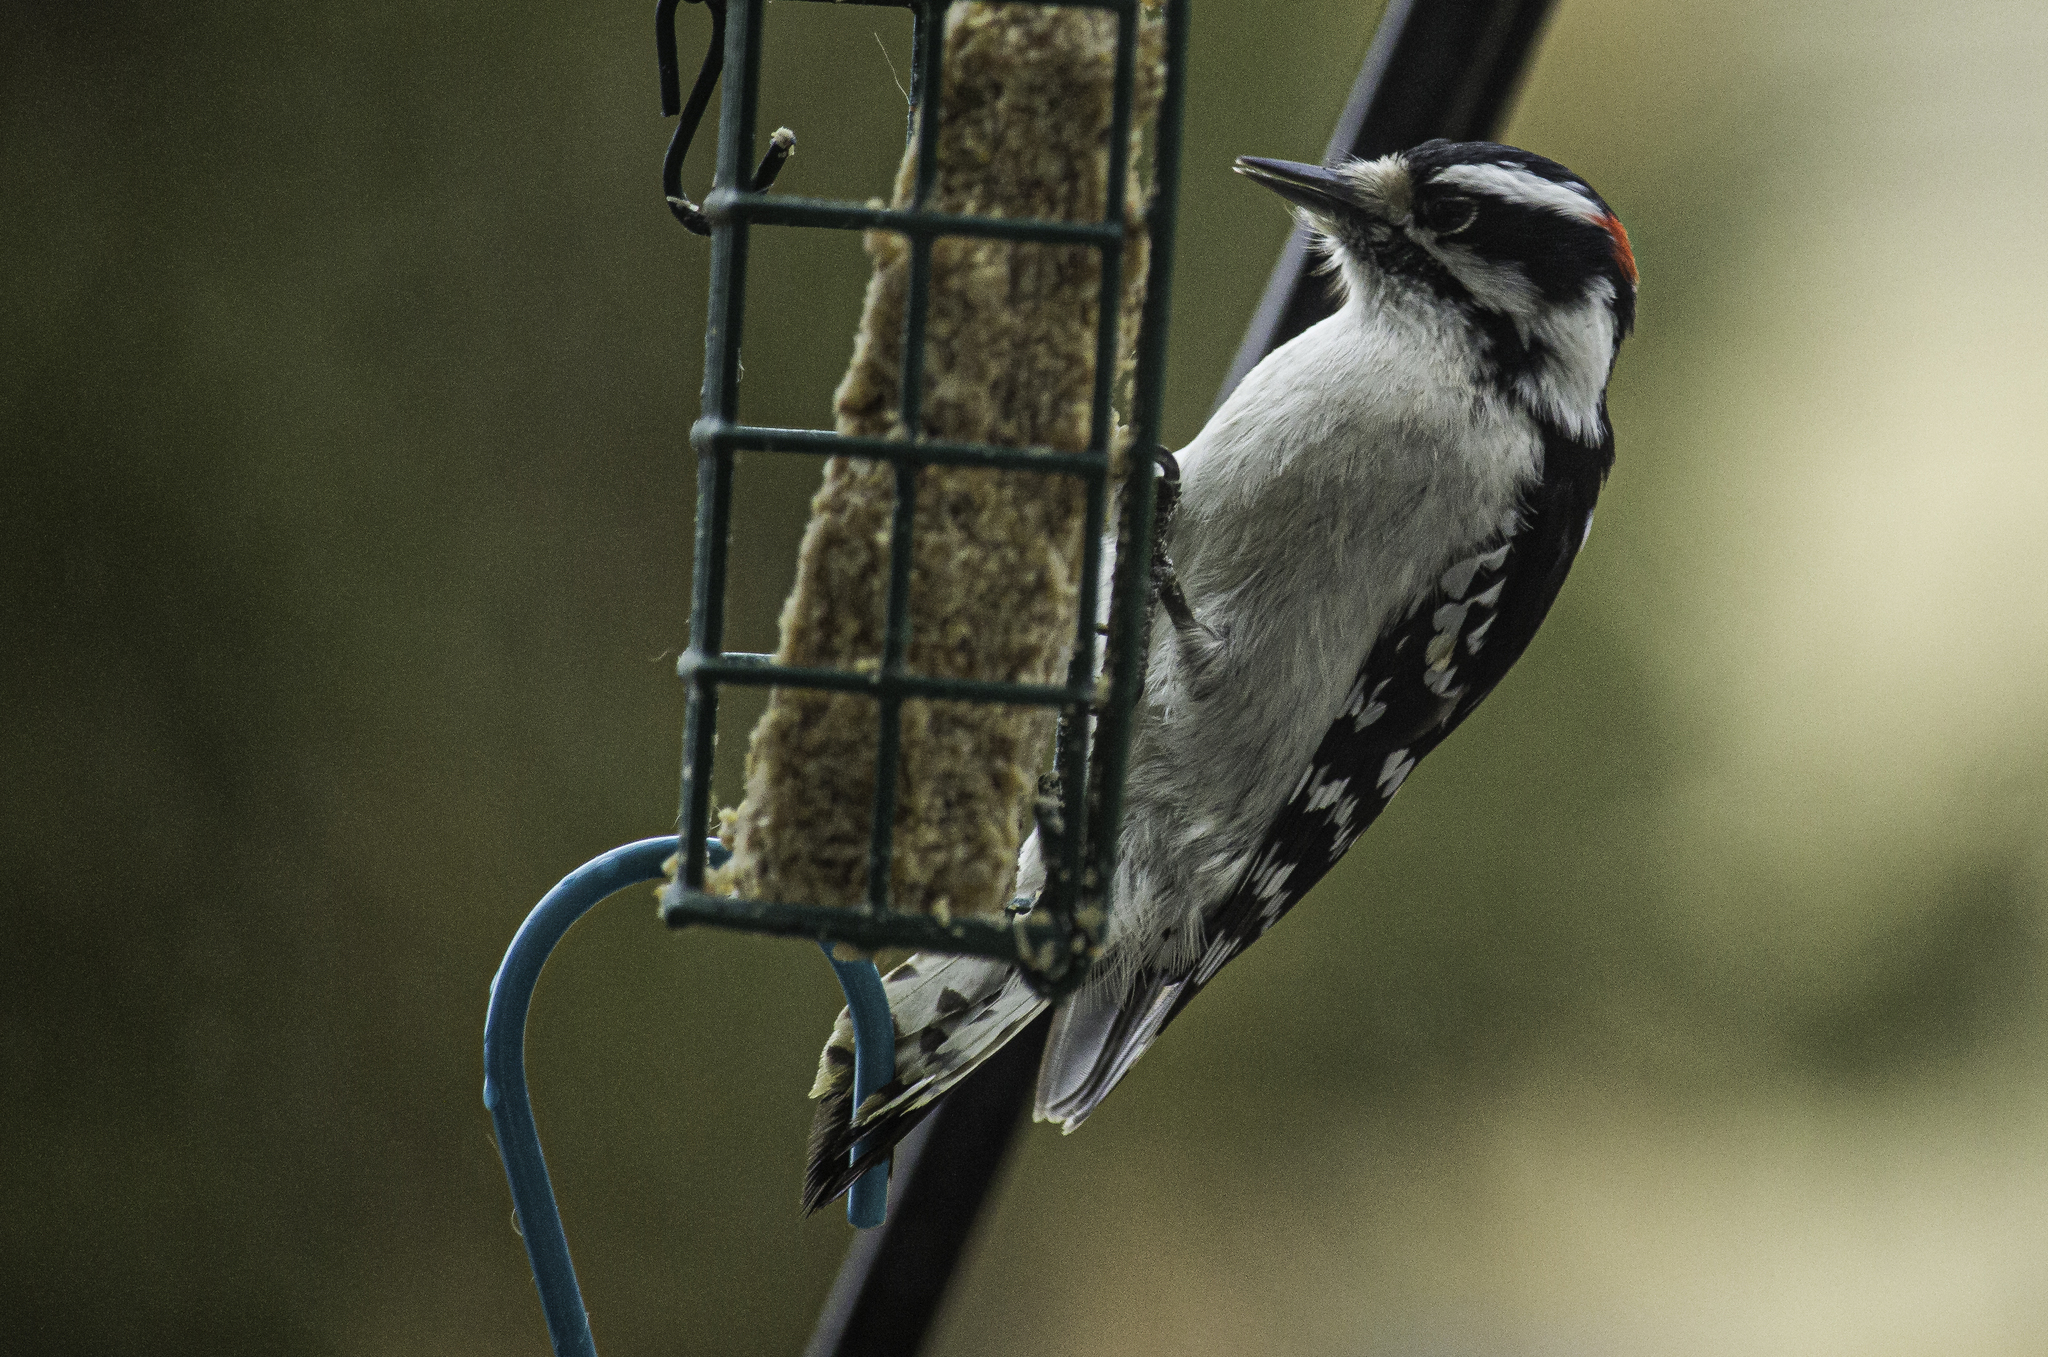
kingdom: Animalia
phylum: Chordata
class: Aves
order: Piciformes
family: Picidae
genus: Dryobates
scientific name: Dryobates pubescens
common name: Downy woodpecker
